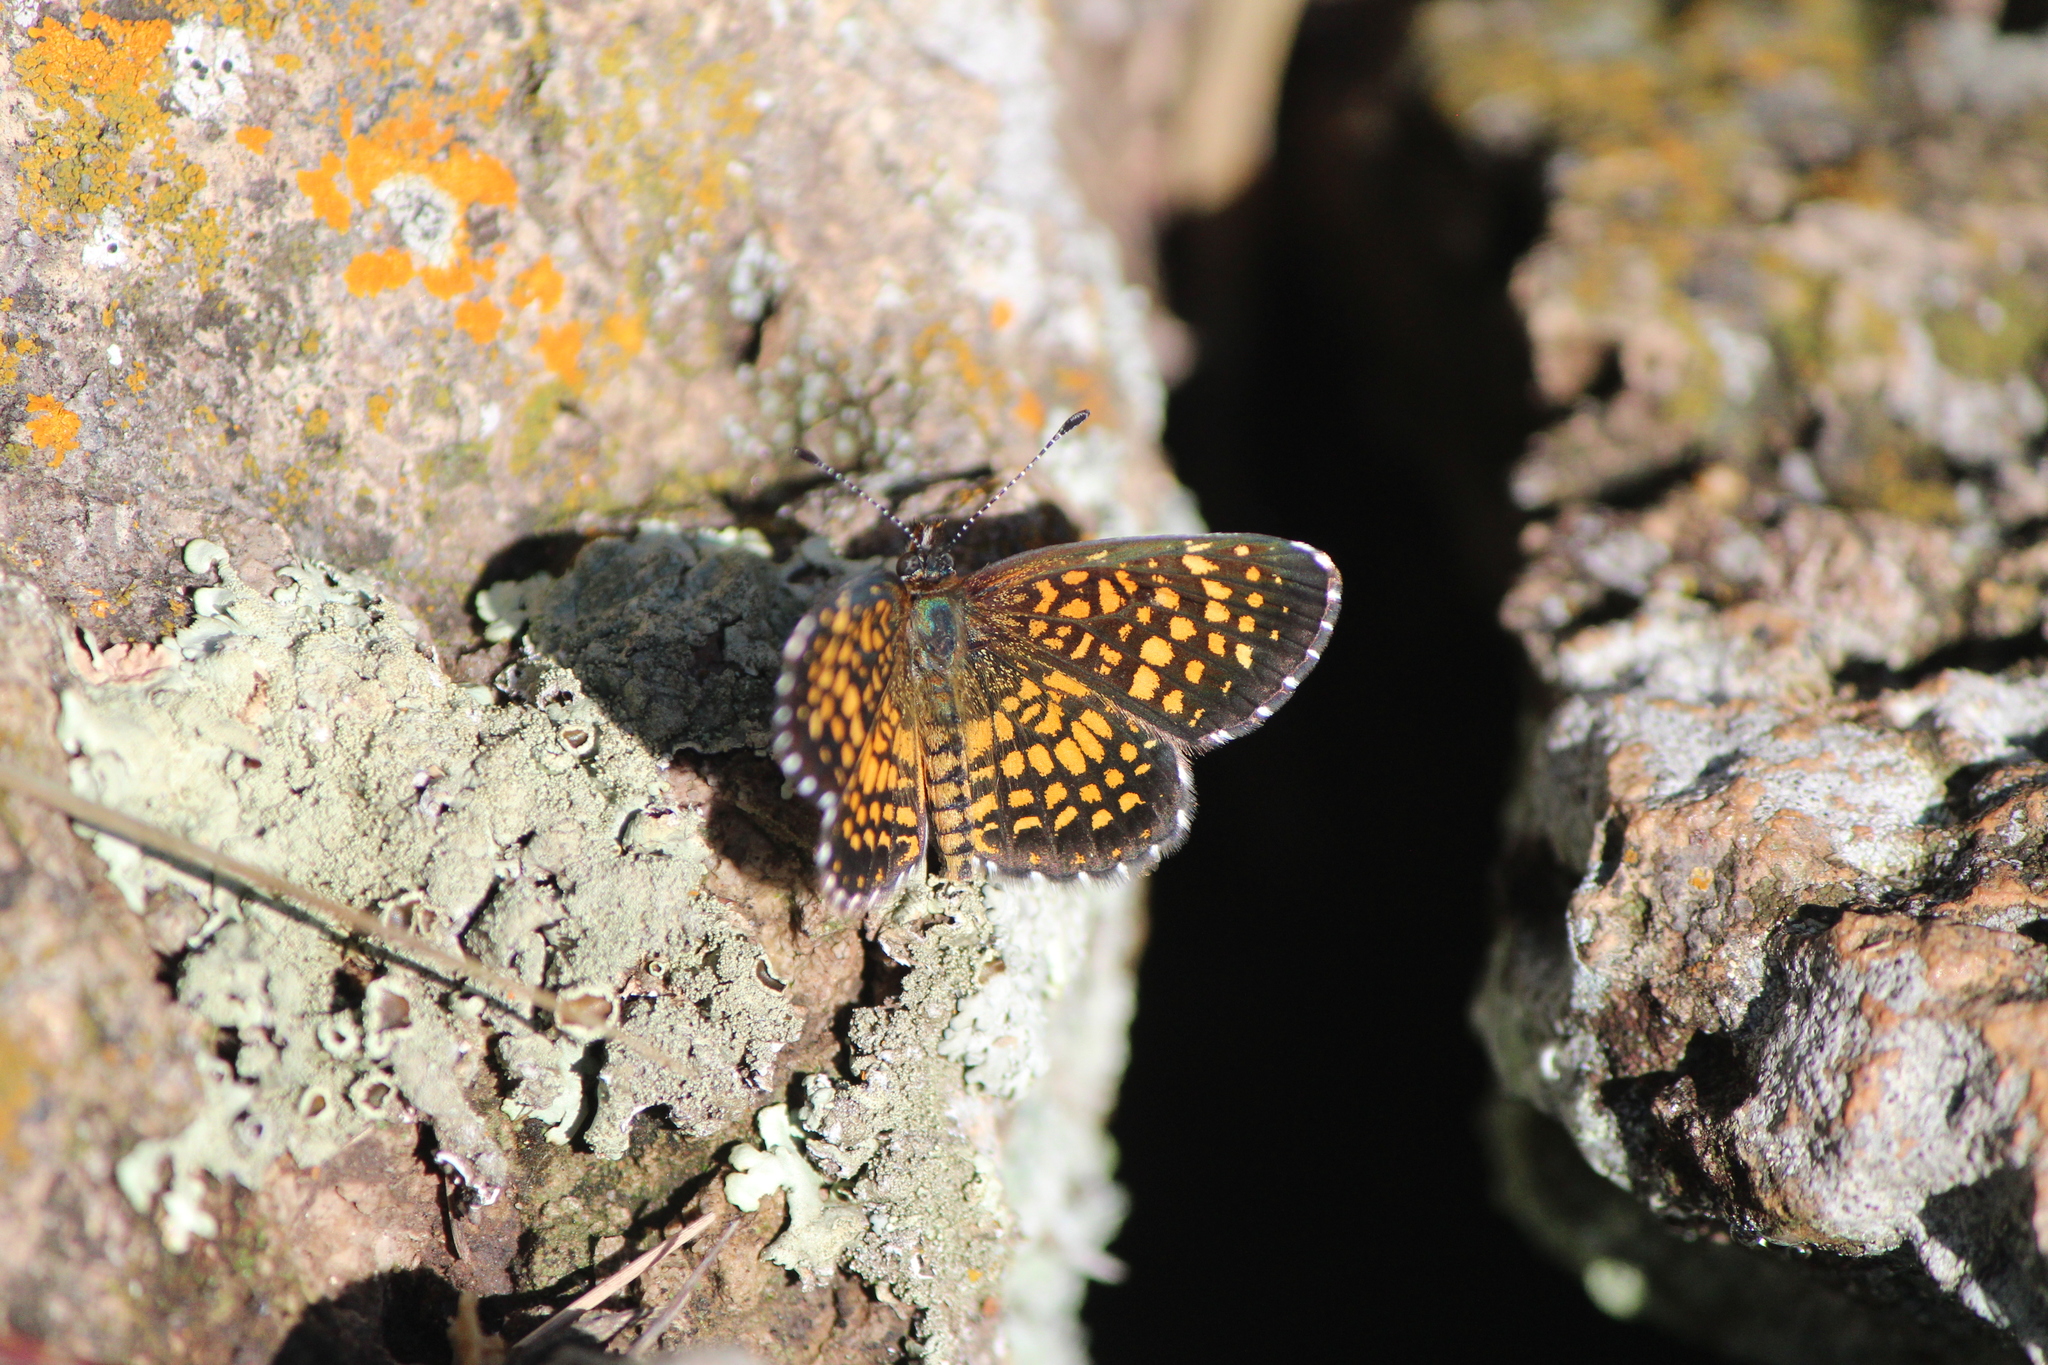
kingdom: Animalia
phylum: Arthropoda
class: Insecta
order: Lepidoptera
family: Nymphalidae
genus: Texola
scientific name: Texola elada
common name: Elada checkerspot
